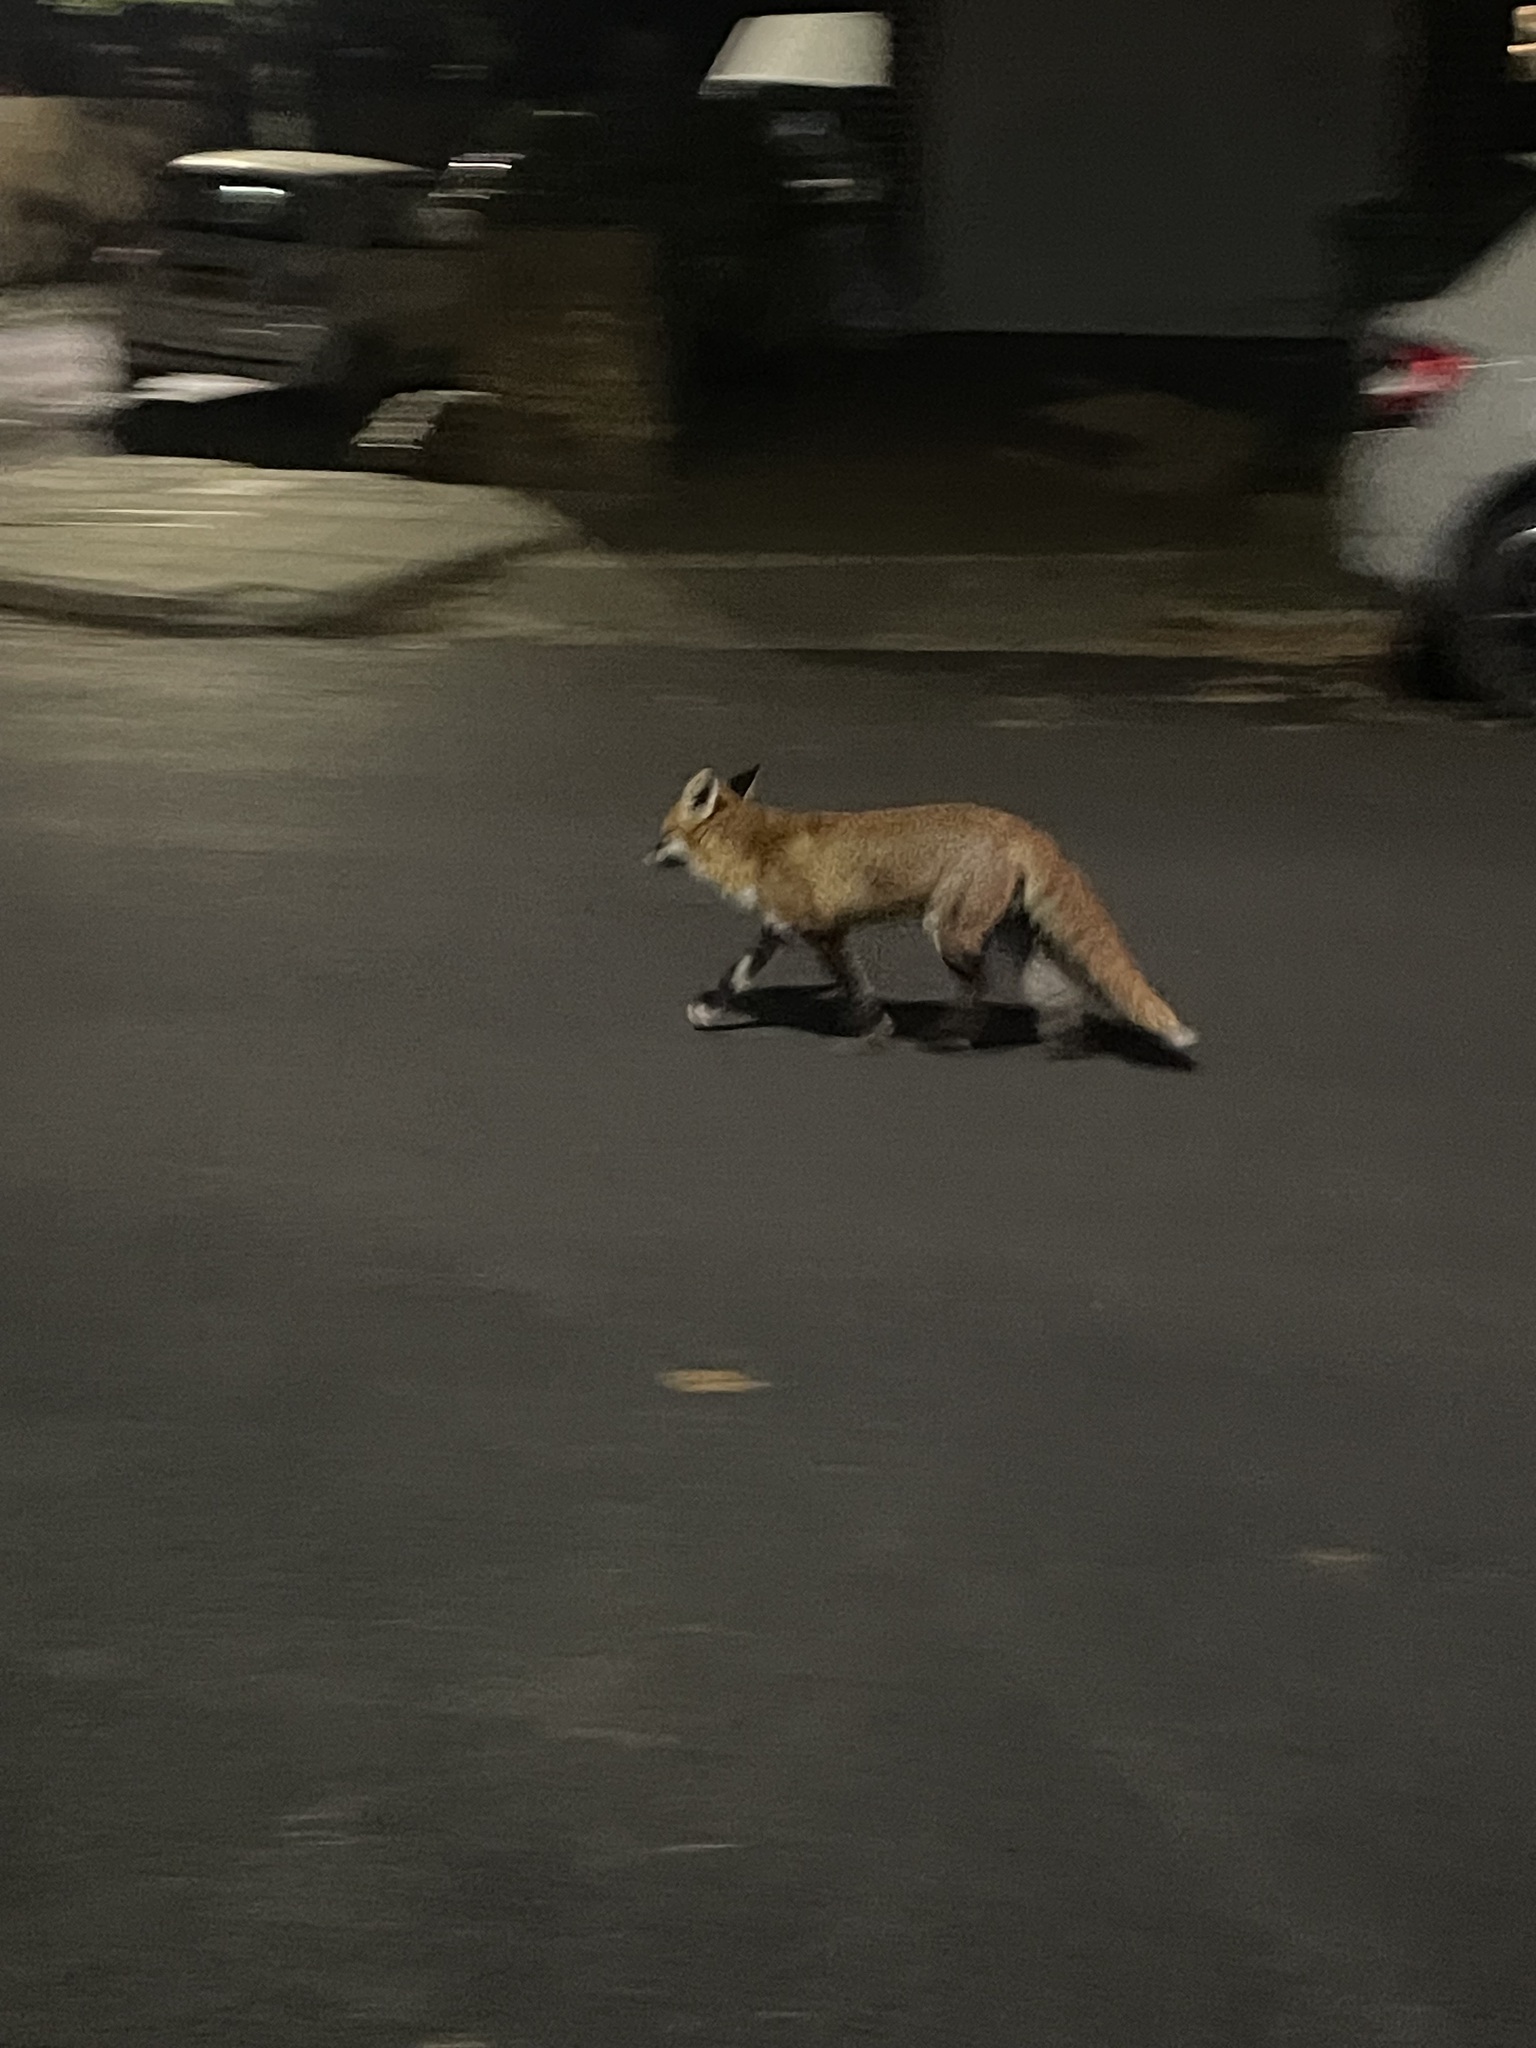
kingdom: Animalia
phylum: Chordata
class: Mammalia
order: Carnivora
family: Canidae
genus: Vulpes
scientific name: Vulpes vulpes
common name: Red fox
